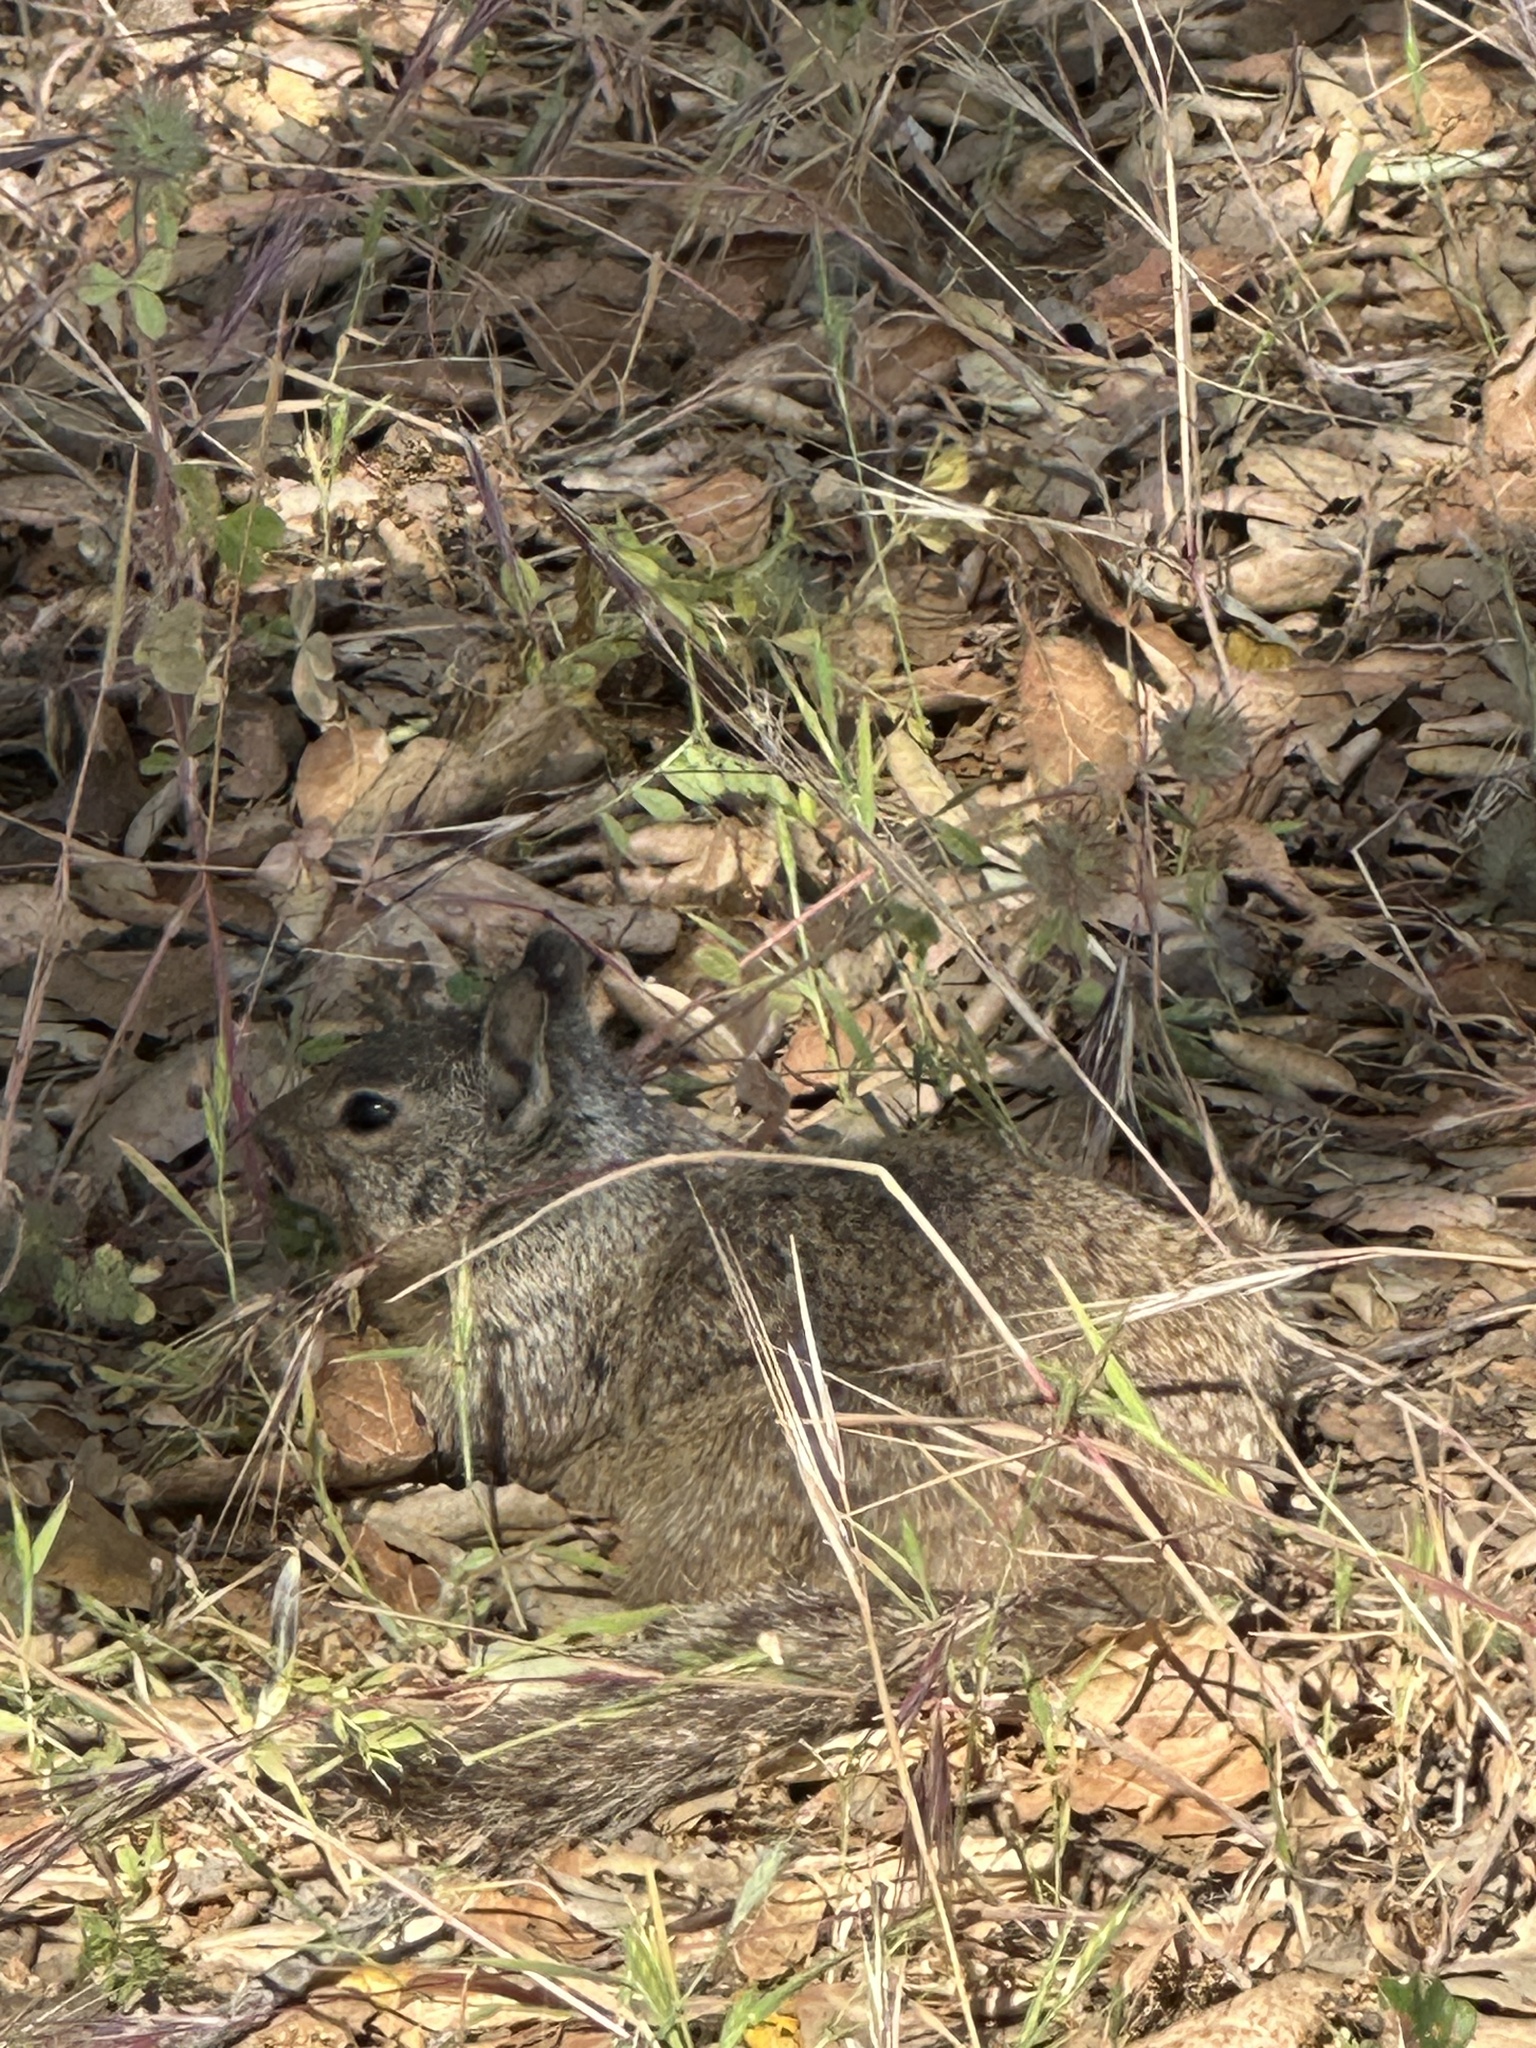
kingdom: Animalia
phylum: Chordata
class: Mammalia
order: Rodentia
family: Sciuridae
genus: Otospermophilus
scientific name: Otospermophilus beecheyi
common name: California ground squirrel
